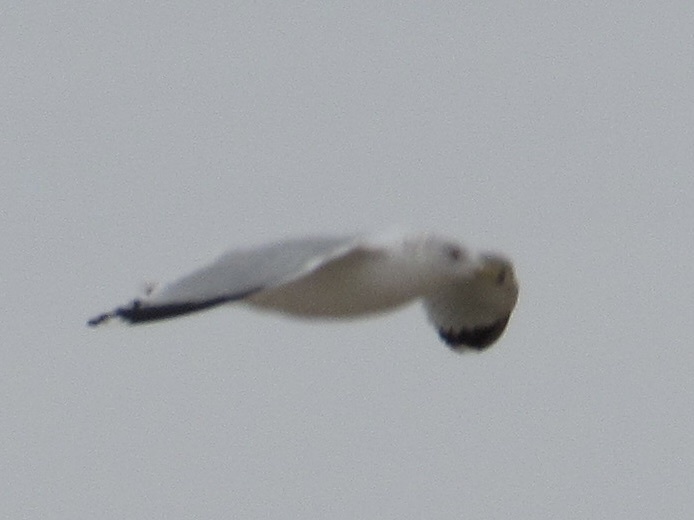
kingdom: Animalia
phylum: Chordata
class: Aves
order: Charadriiformes
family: Laridae
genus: Larus
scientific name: Larus delawarensis
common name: Ring-billed gull
